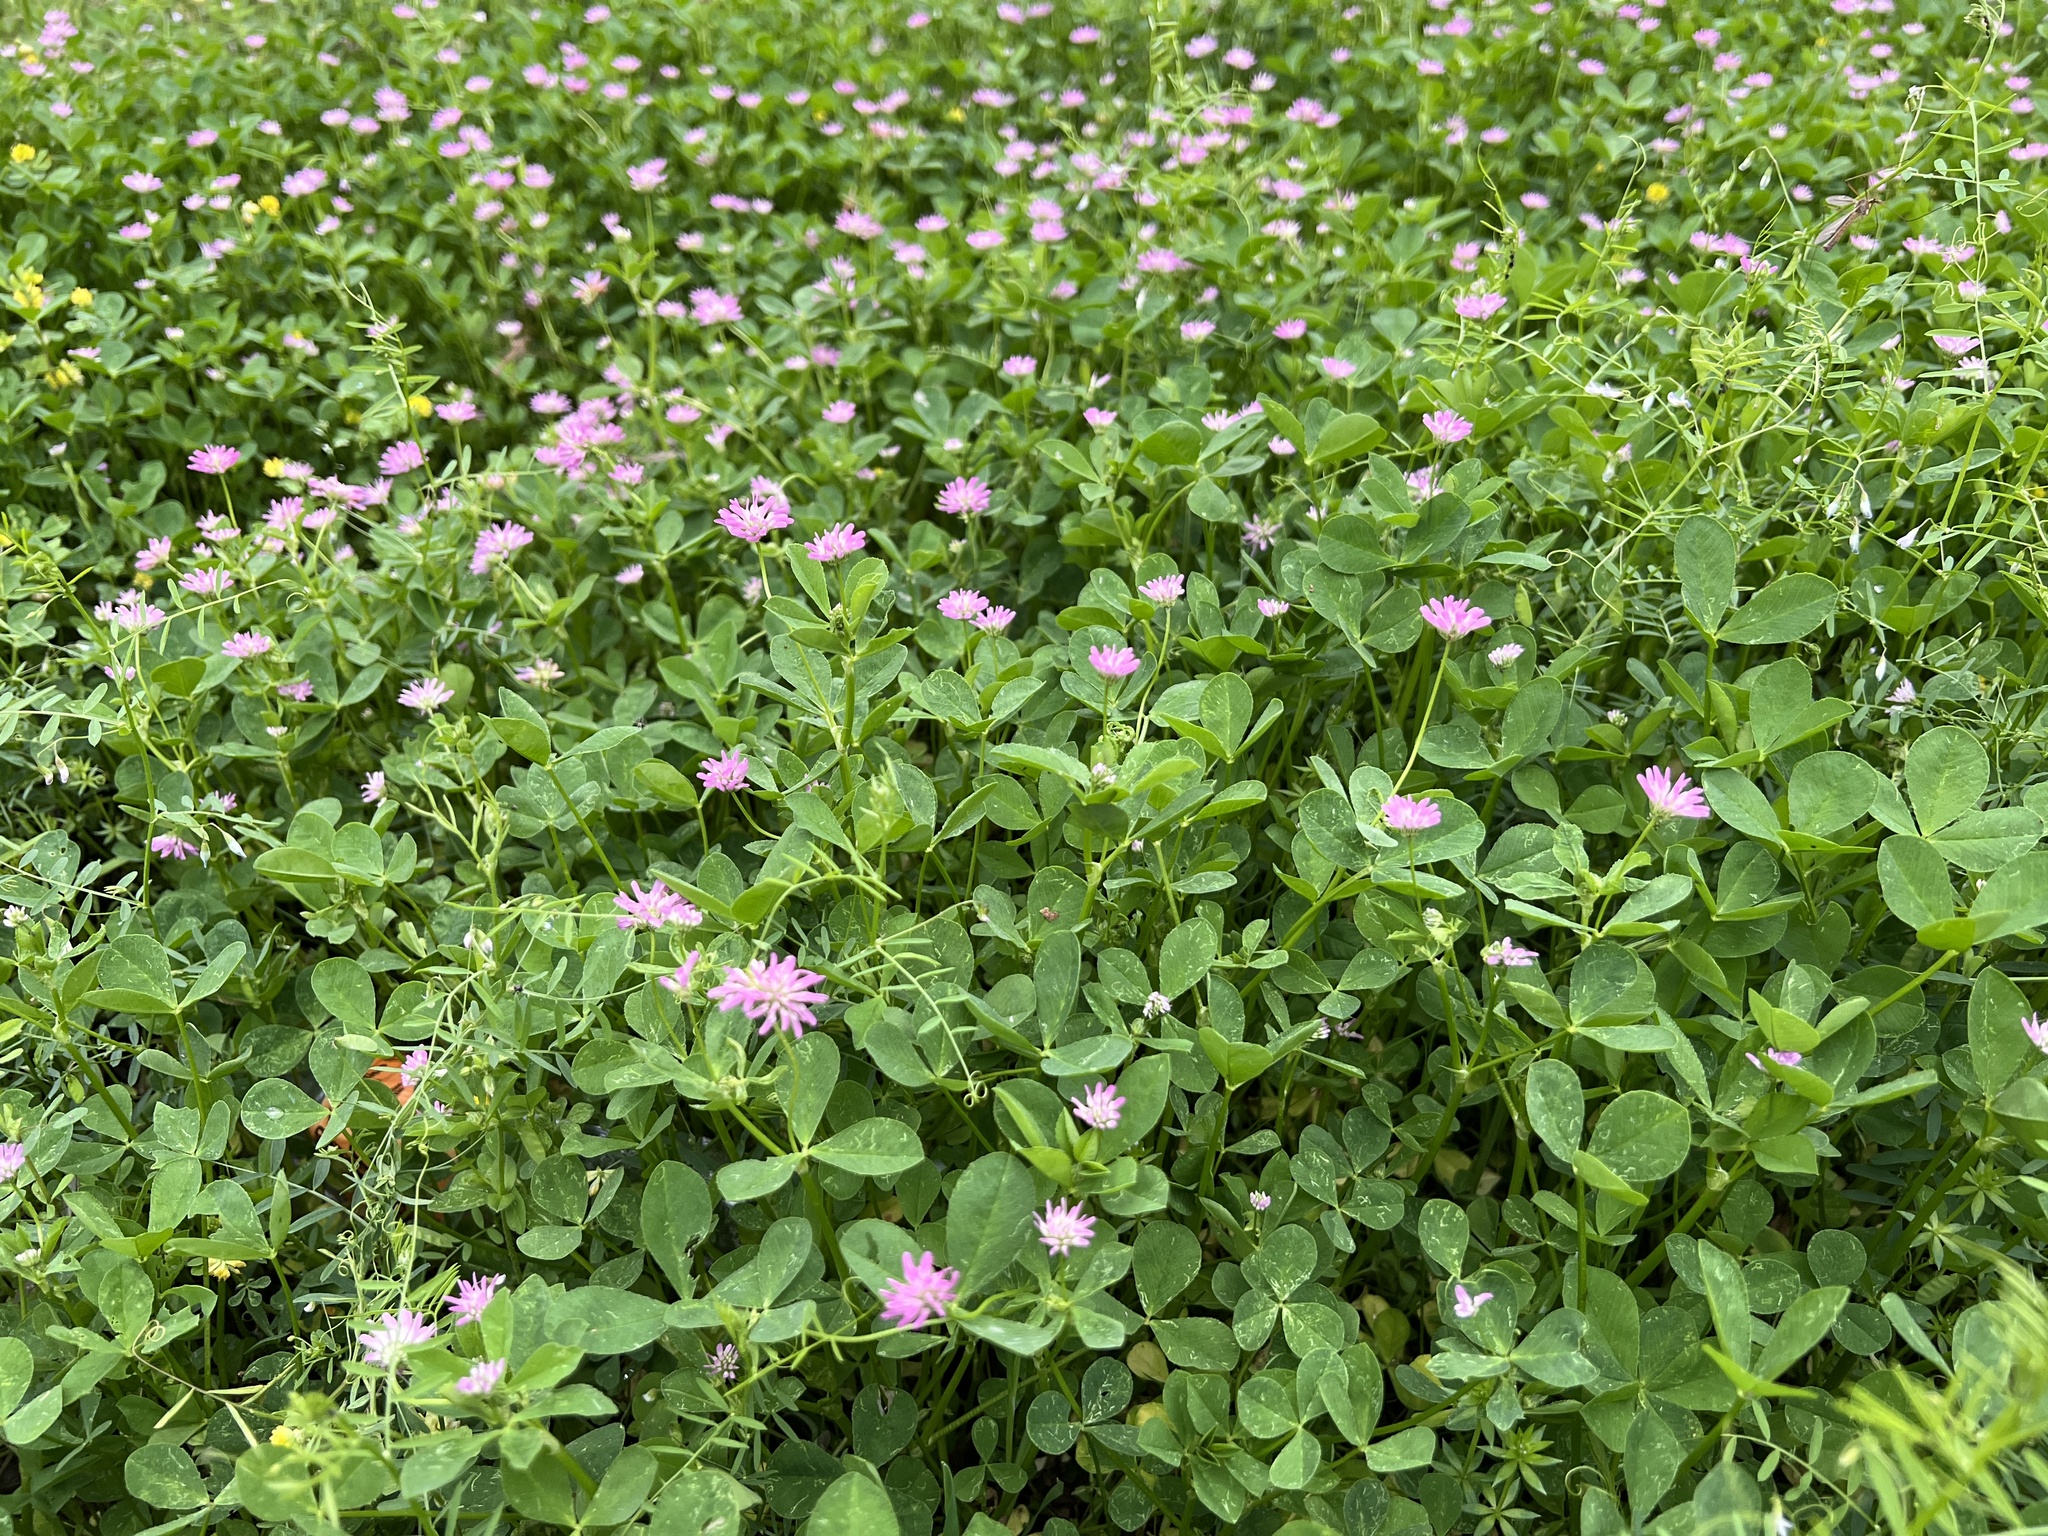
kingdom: Plantae
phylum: Tracheophyta
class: Magnoliopsida
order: Fabales
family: Fabaceae
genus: Trifolium
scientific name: Trifolium resupinatum
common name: Reversed clover
